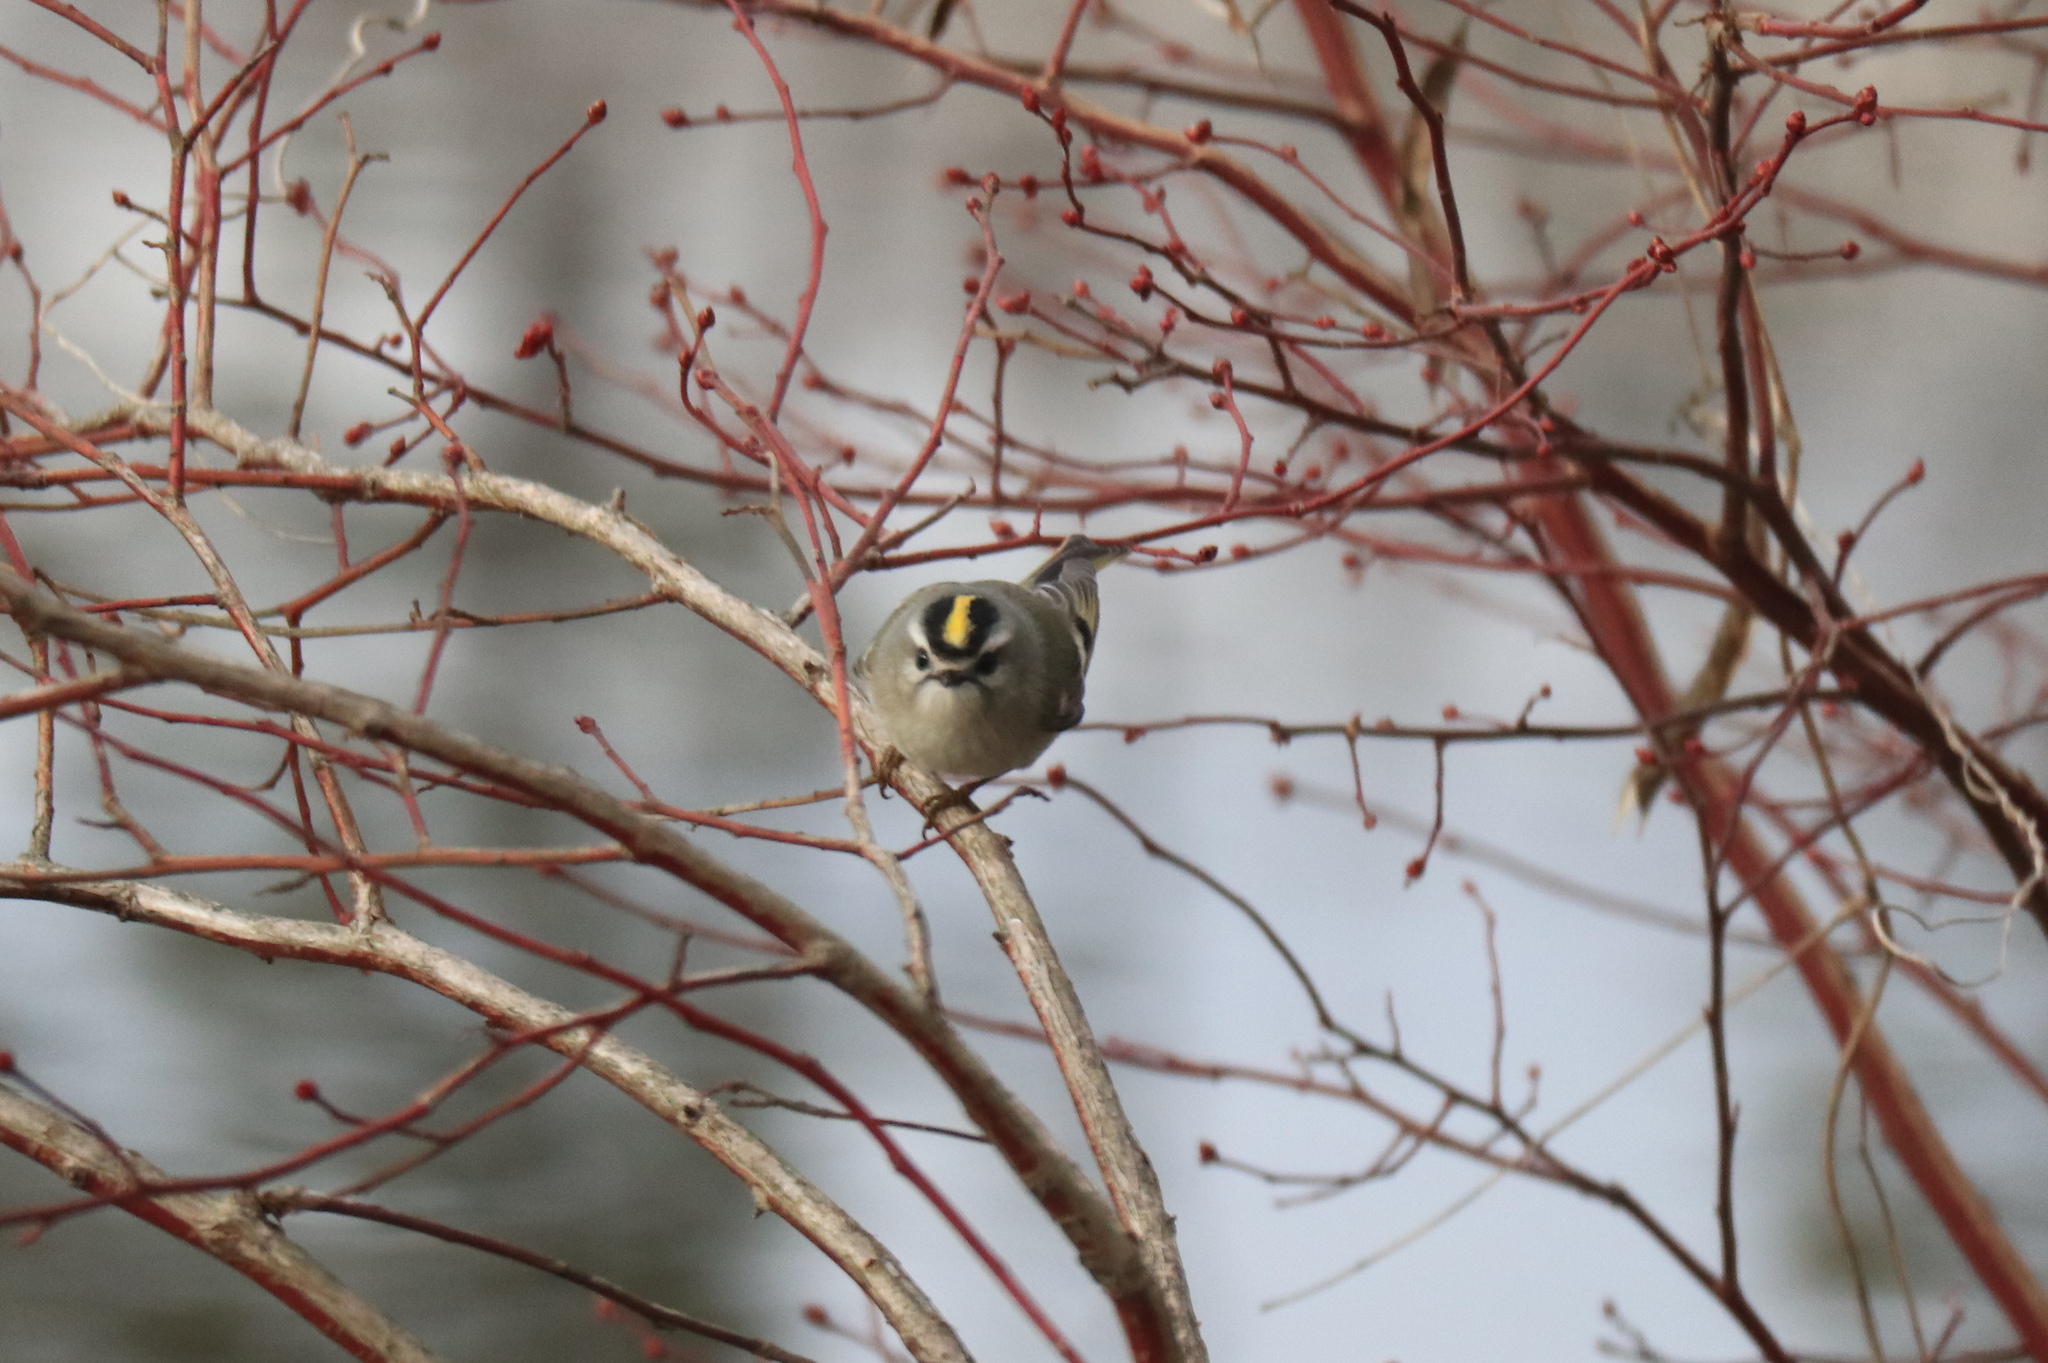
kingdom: Animalia
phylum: Chordata
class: Aves
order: Passeriformes
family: Regulidae
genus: Regulus
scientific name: Regulus satrapa
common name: Golden-crowned kinglet
